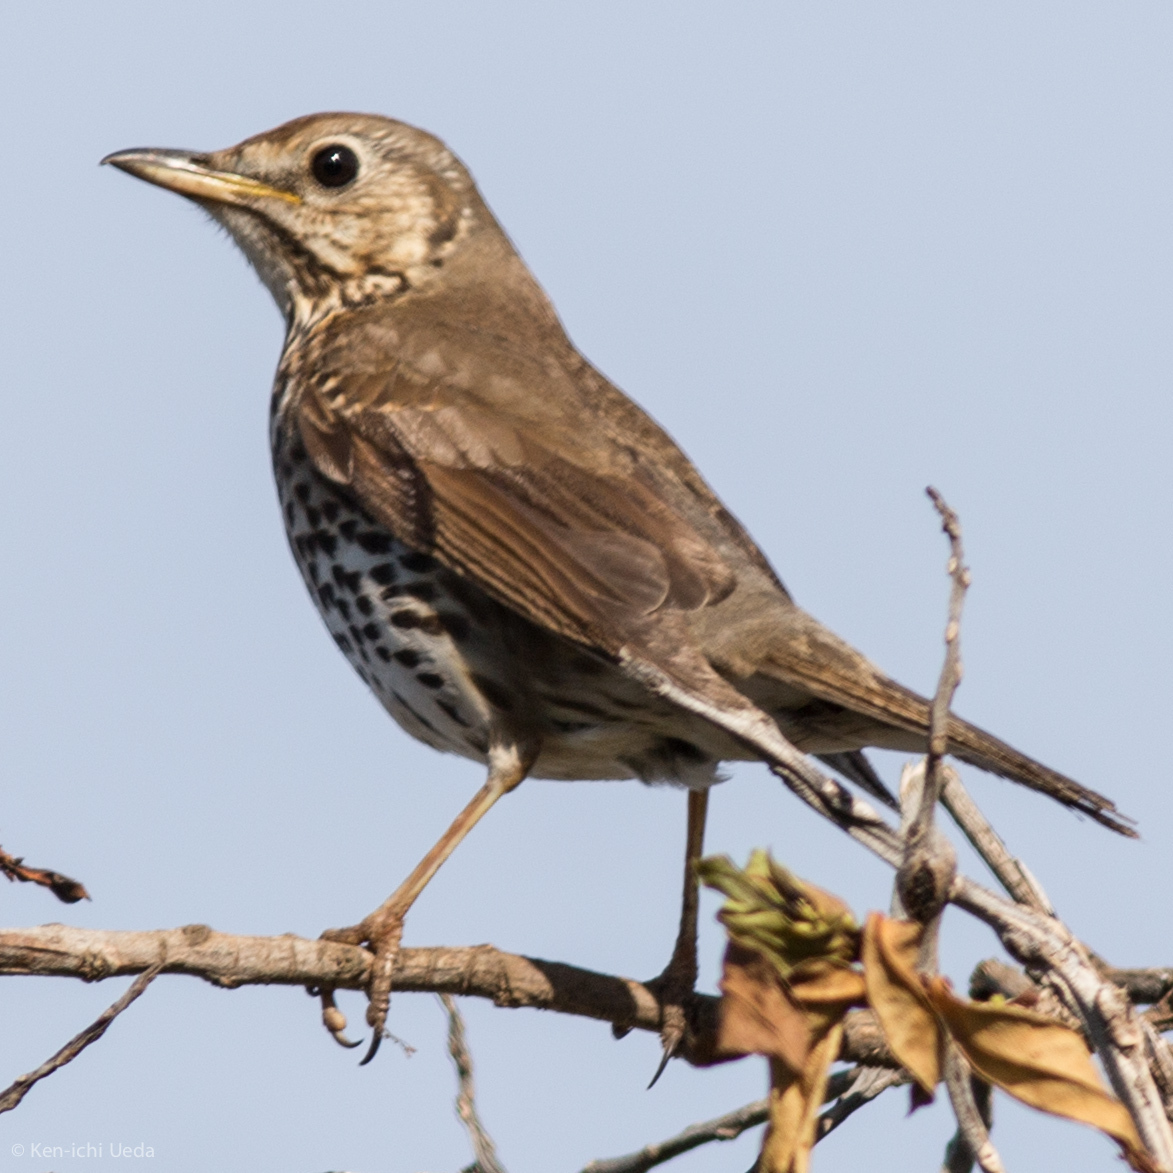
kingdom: Animalia
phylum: Chordata
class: Aves
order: Passeriformes
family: Turdidae
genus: Turdus
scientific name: Turdus philomelos
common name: Song thrush
